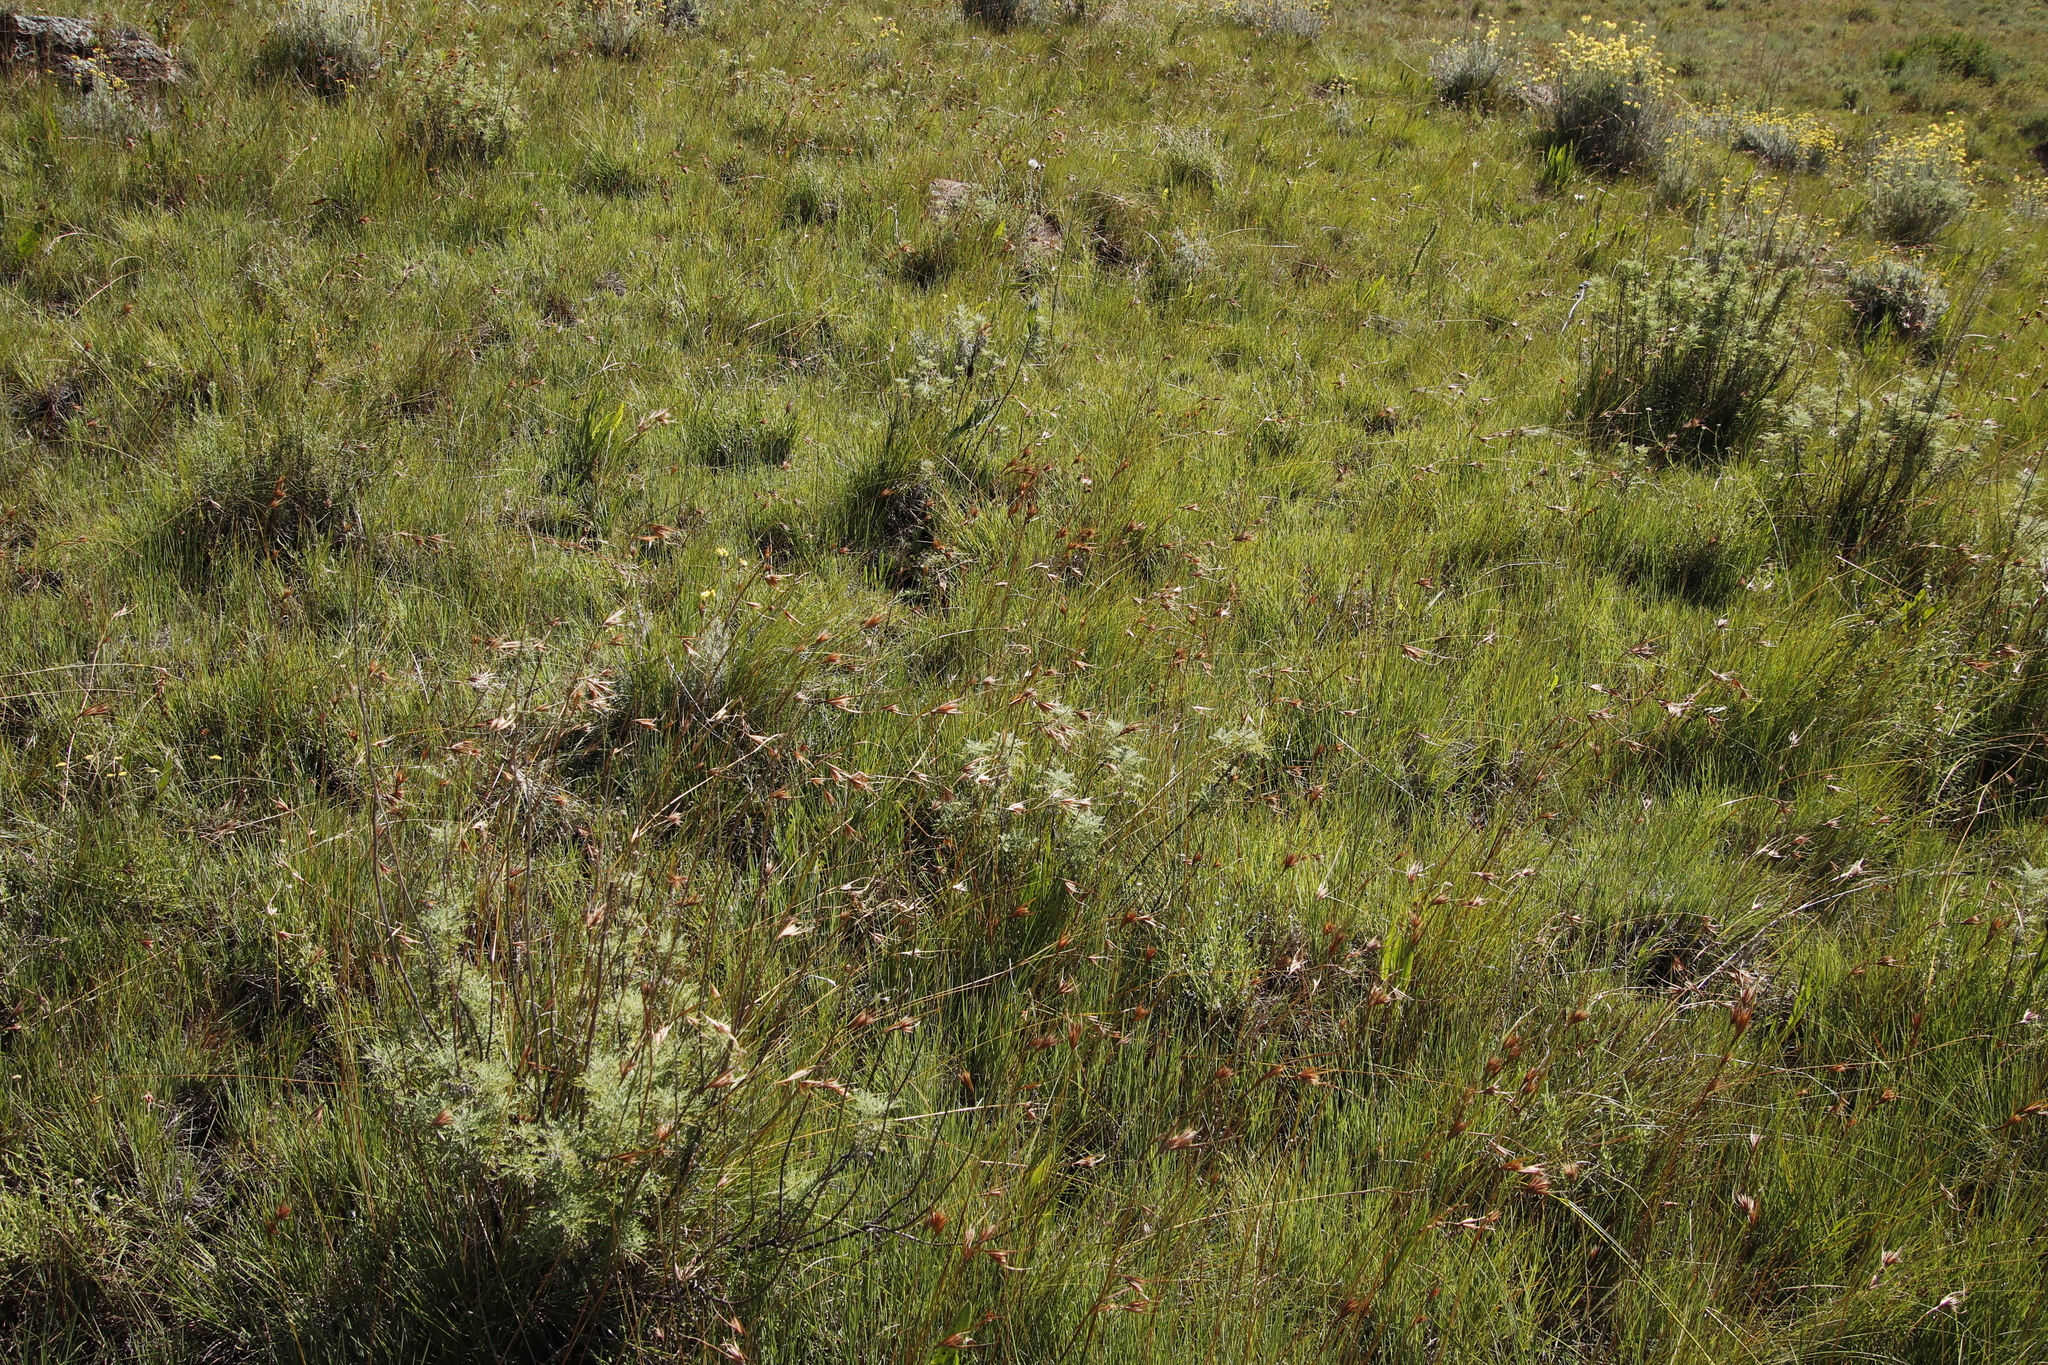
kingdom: Plantae
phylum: Tracheophyta
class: Liliopsida
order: Poales
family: Poaceae
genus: Themeda
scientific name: Themeda triandra
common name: Kangaroo grass
